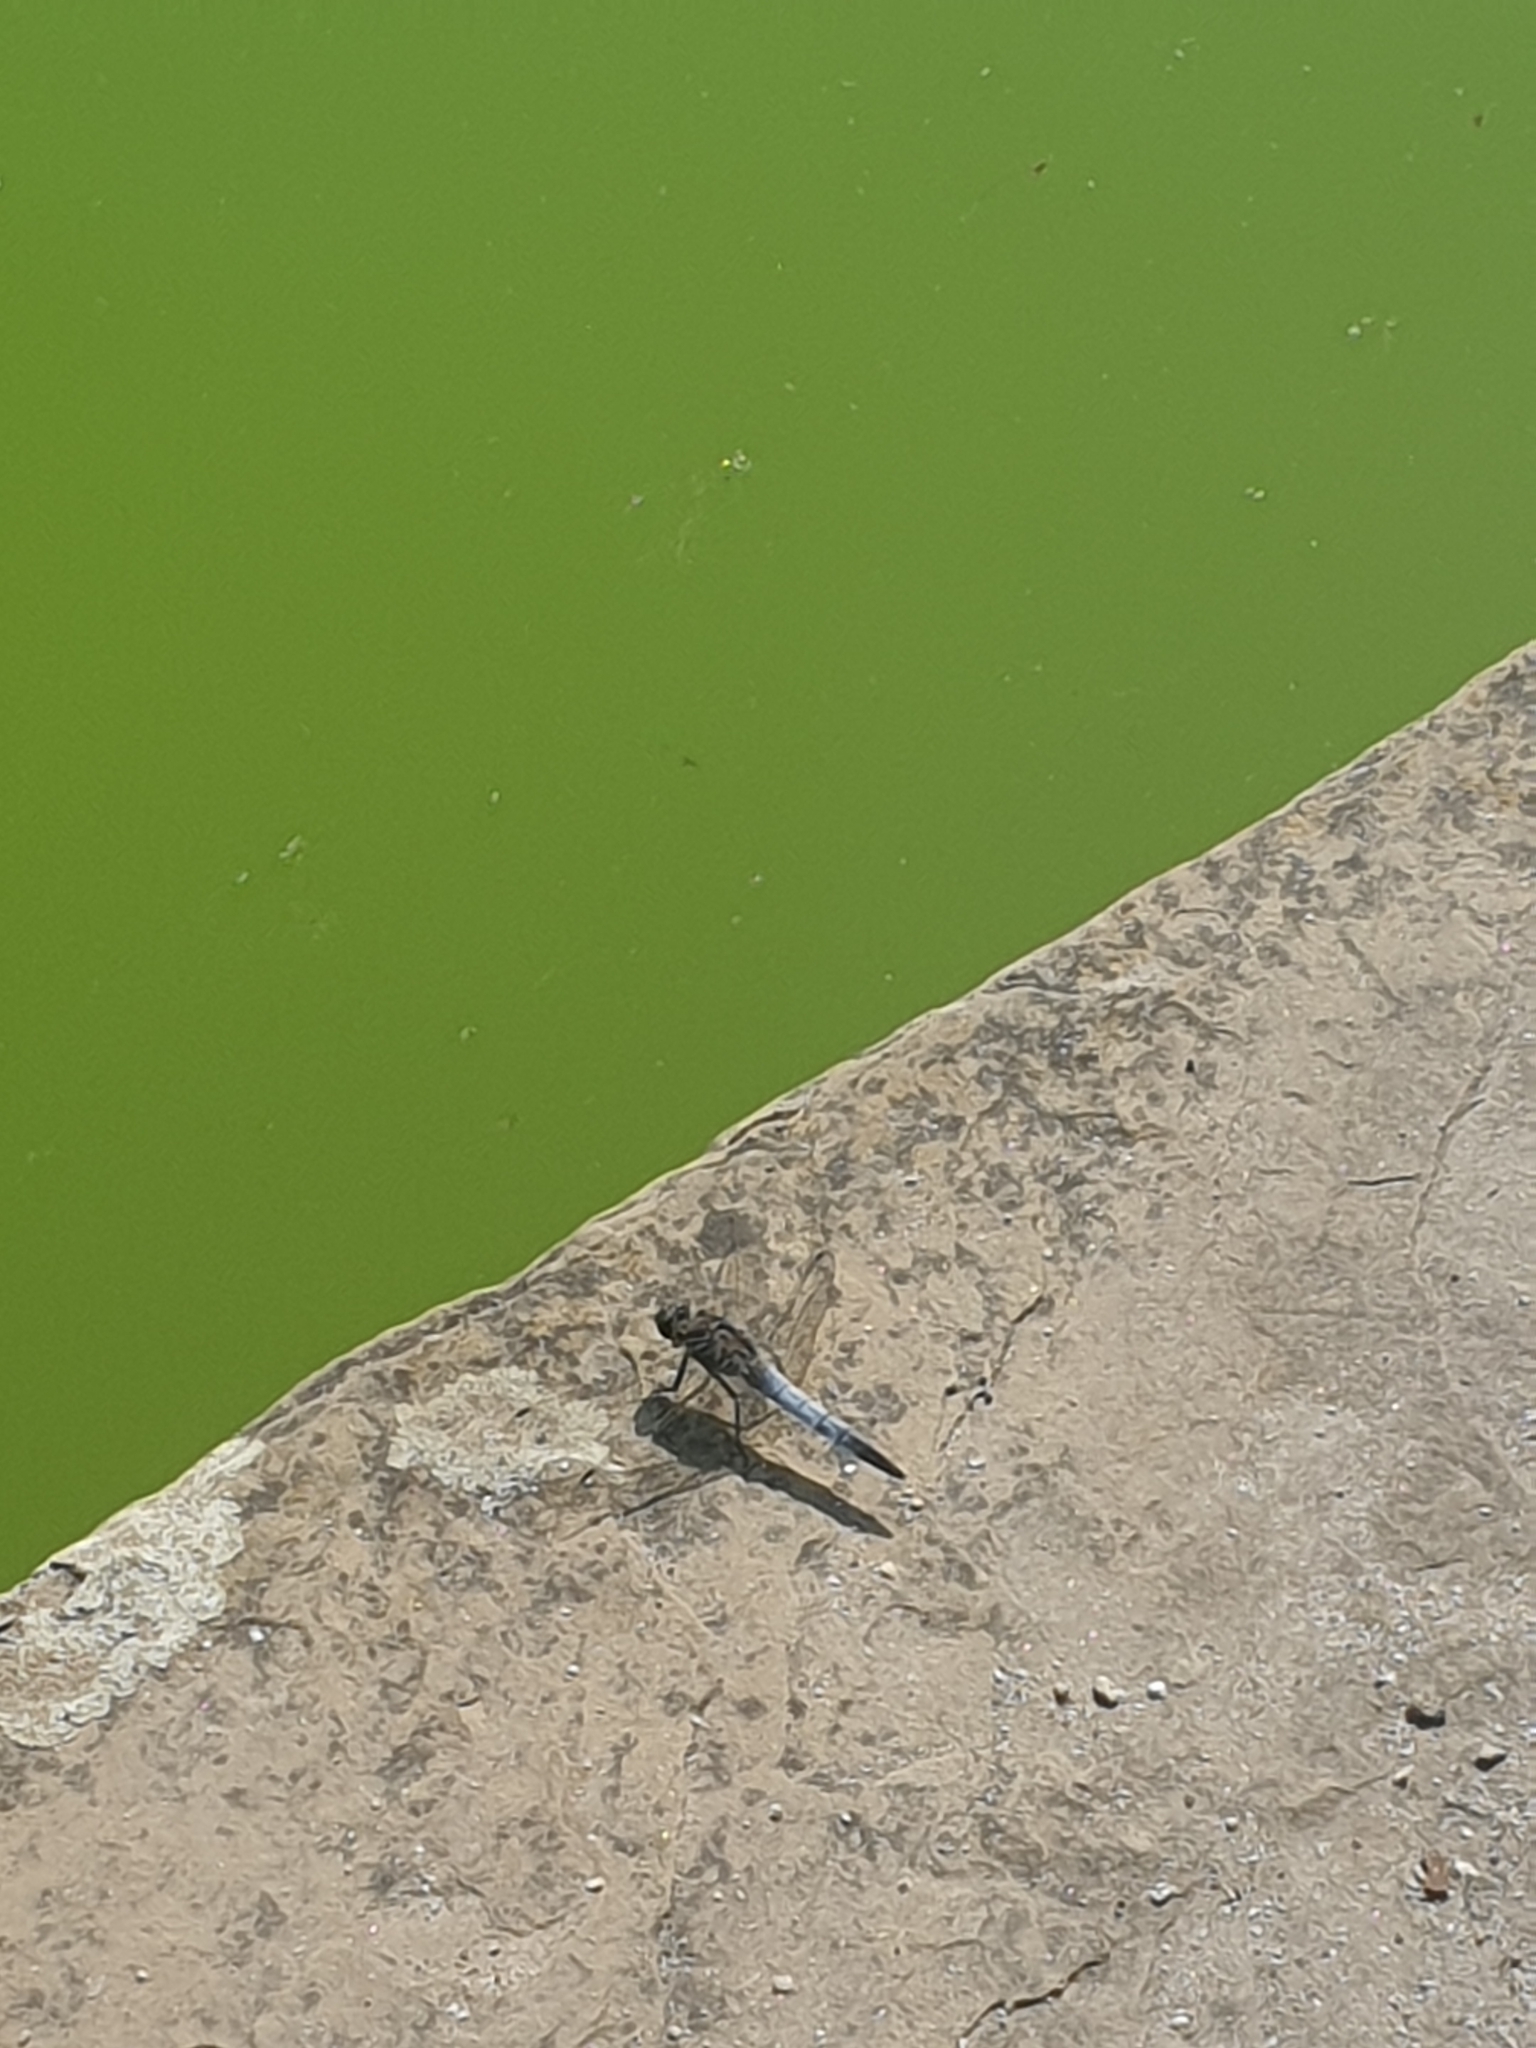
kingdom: Animalia
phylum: Arthropoda
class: Insecta
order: Odonata
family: Libellulidae
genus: Orthetrum
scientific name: Orthetrum cancellatum
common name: Black-tailed skimmer
